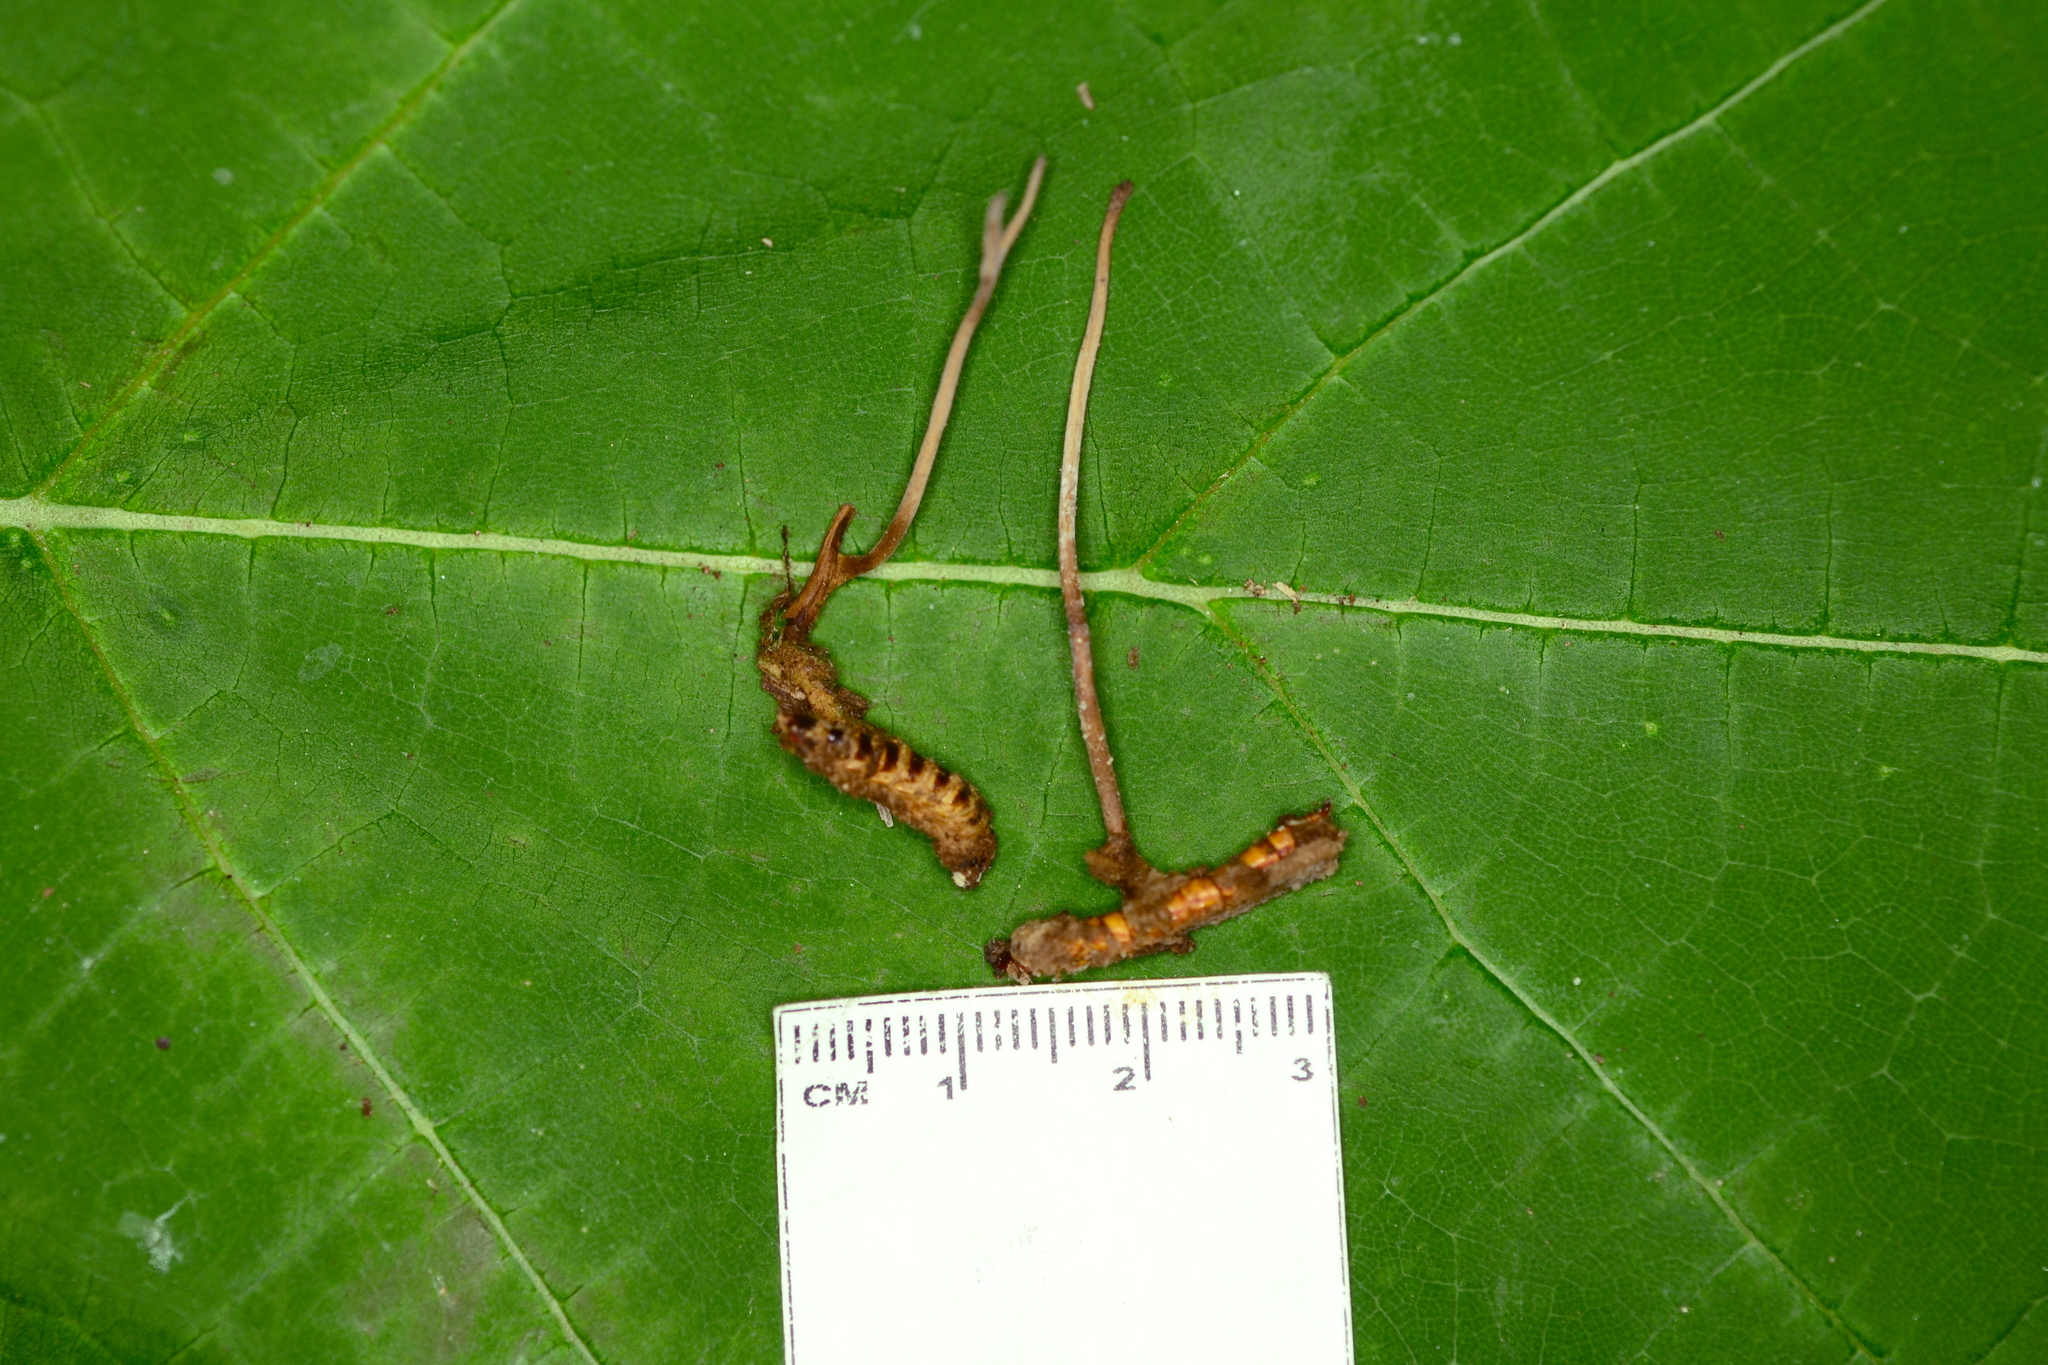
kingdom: Fungi
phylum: Ascomycota
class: Sordariomycetes
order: Hypocreales
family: Ophiocordycipitaceae
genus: Ophiocordyceps
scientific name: Ophiocordyceps stylophora
